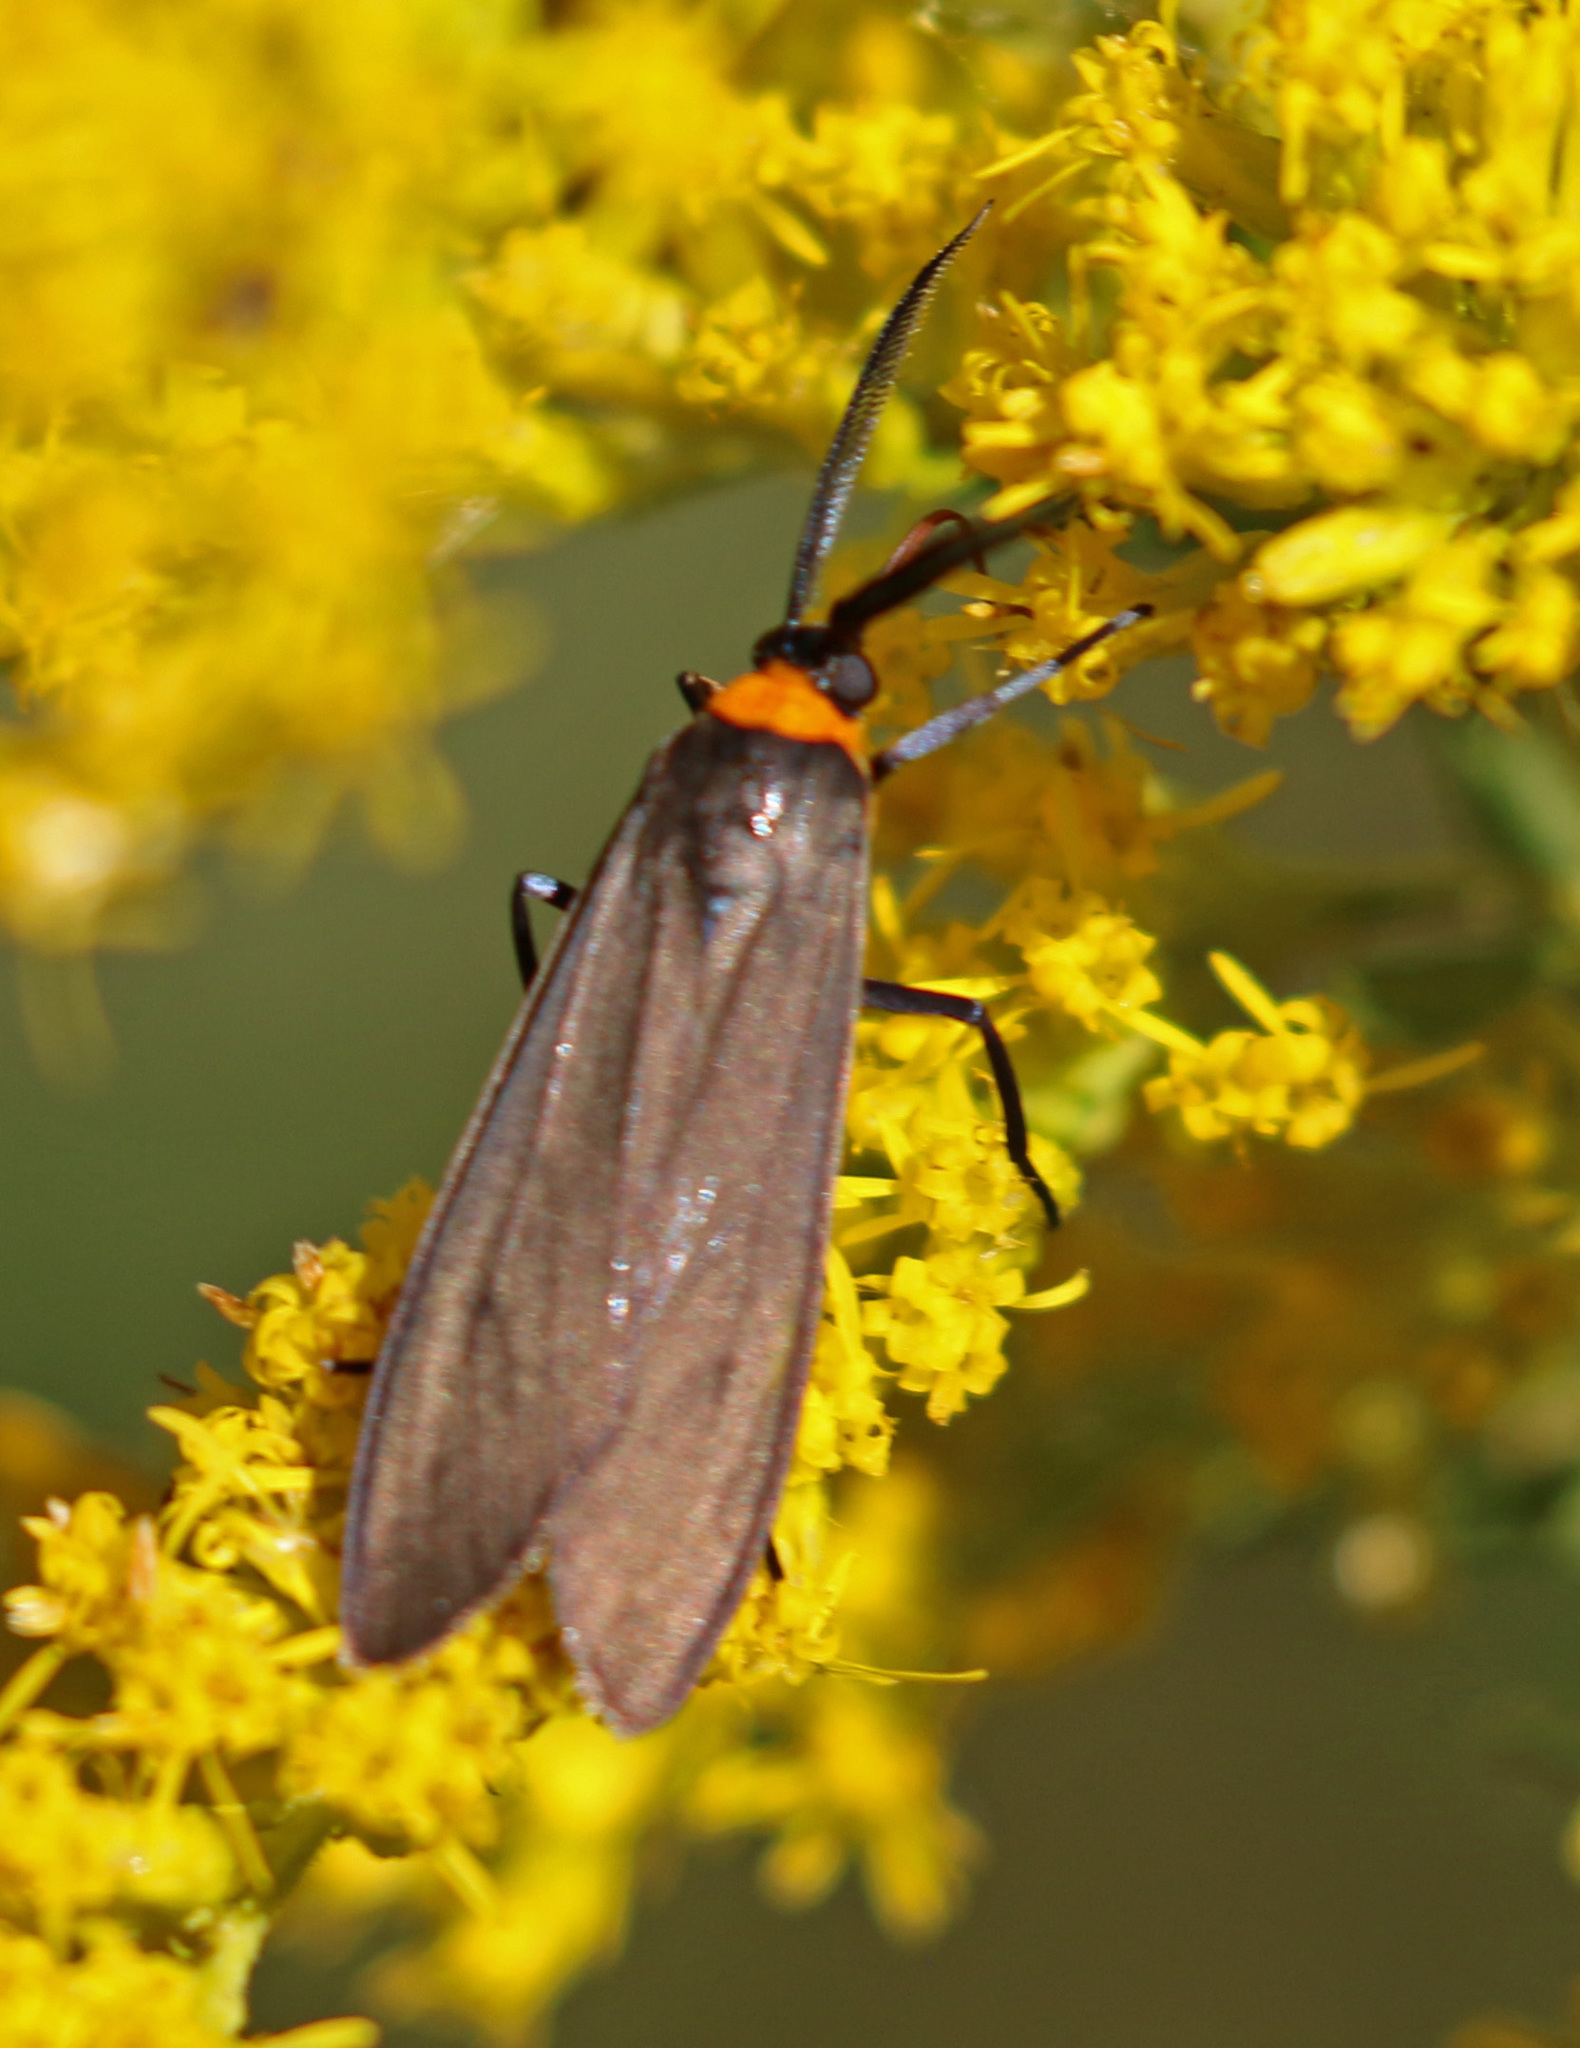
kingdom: Animalia
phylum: Arthropoda
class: Insecta
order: Lepidoptera
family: Erebidae
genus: Cisseps
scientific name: Cisseps fulvicollis
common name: Yellow-collared scape moth
